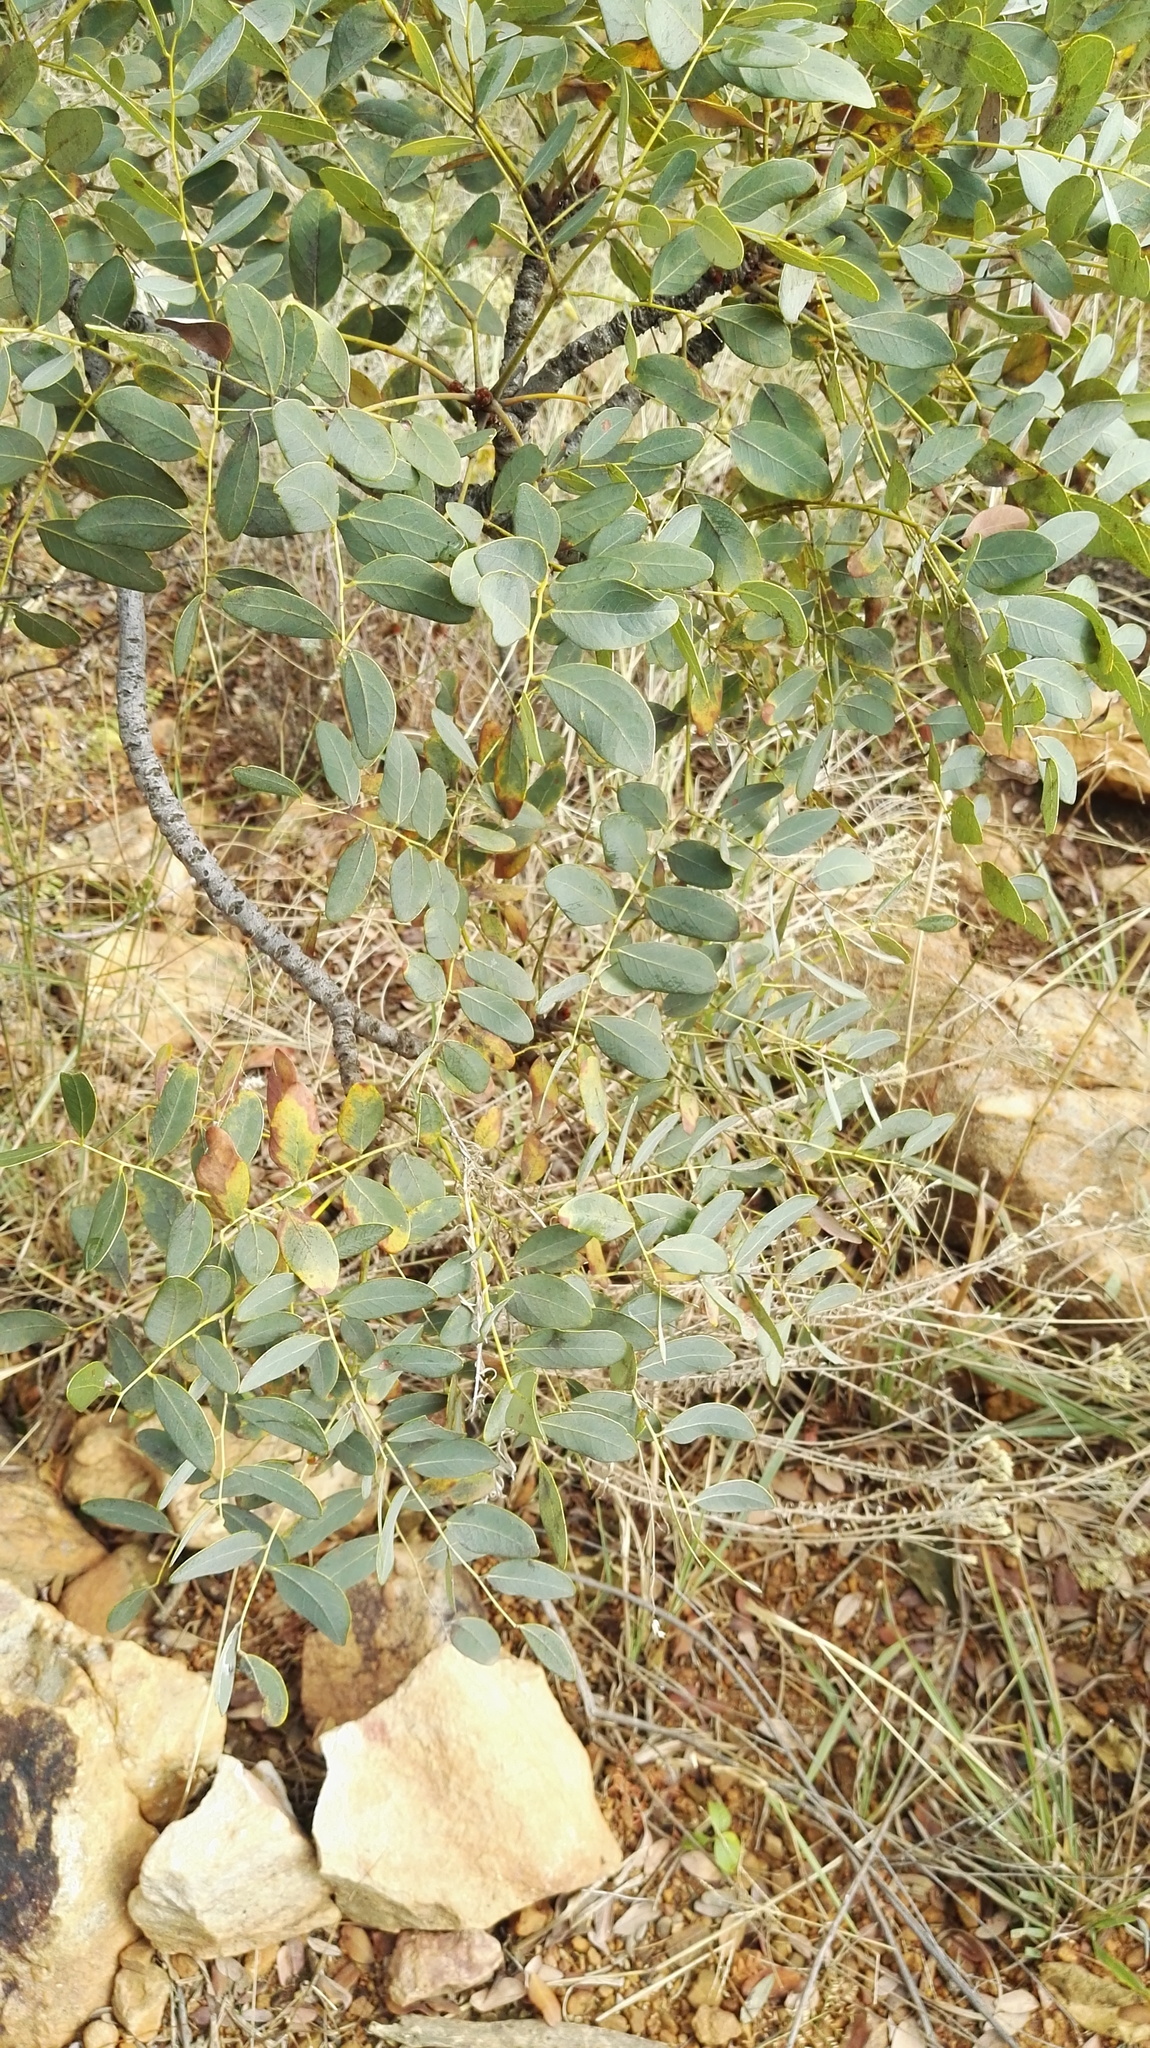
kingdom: Plantae
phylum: Tracheophyta
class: Magnoliopsida
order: Fabales
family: Fabaceae
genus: Burkea
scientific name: Burkea africana
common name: Mkalati tree
